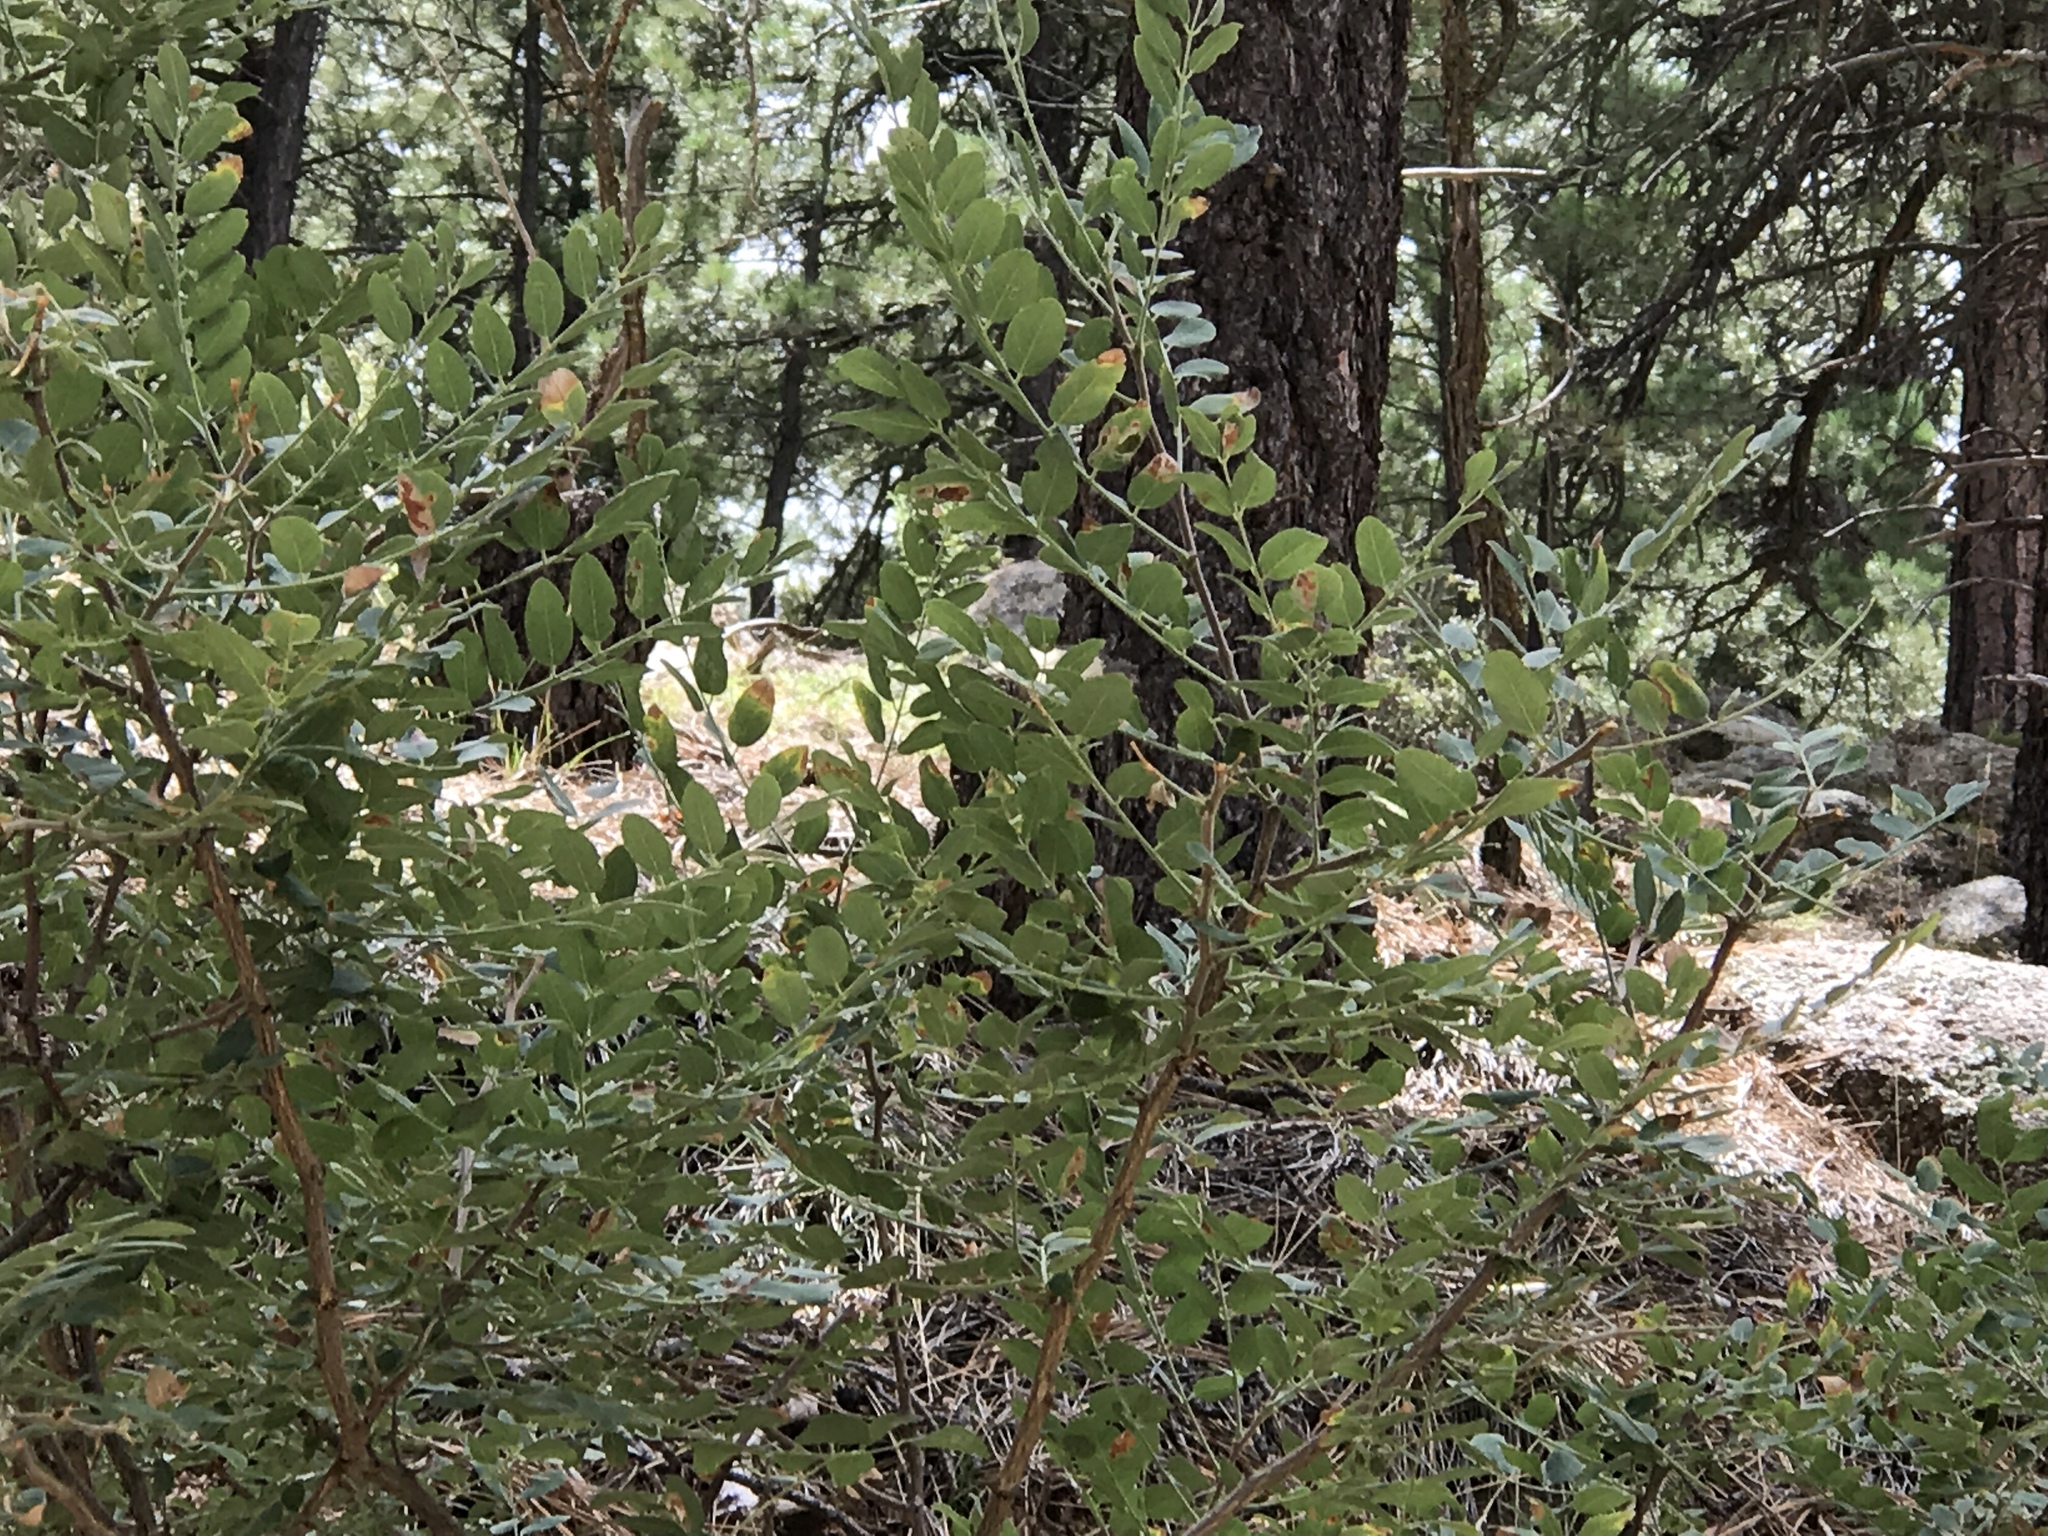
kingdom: Plantae
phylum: Tracheophyta
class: Magnoliopsida
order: Fabales
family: Fabaceae
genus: Robinia
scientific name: Robinia neomexicana
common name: New mexico locust
